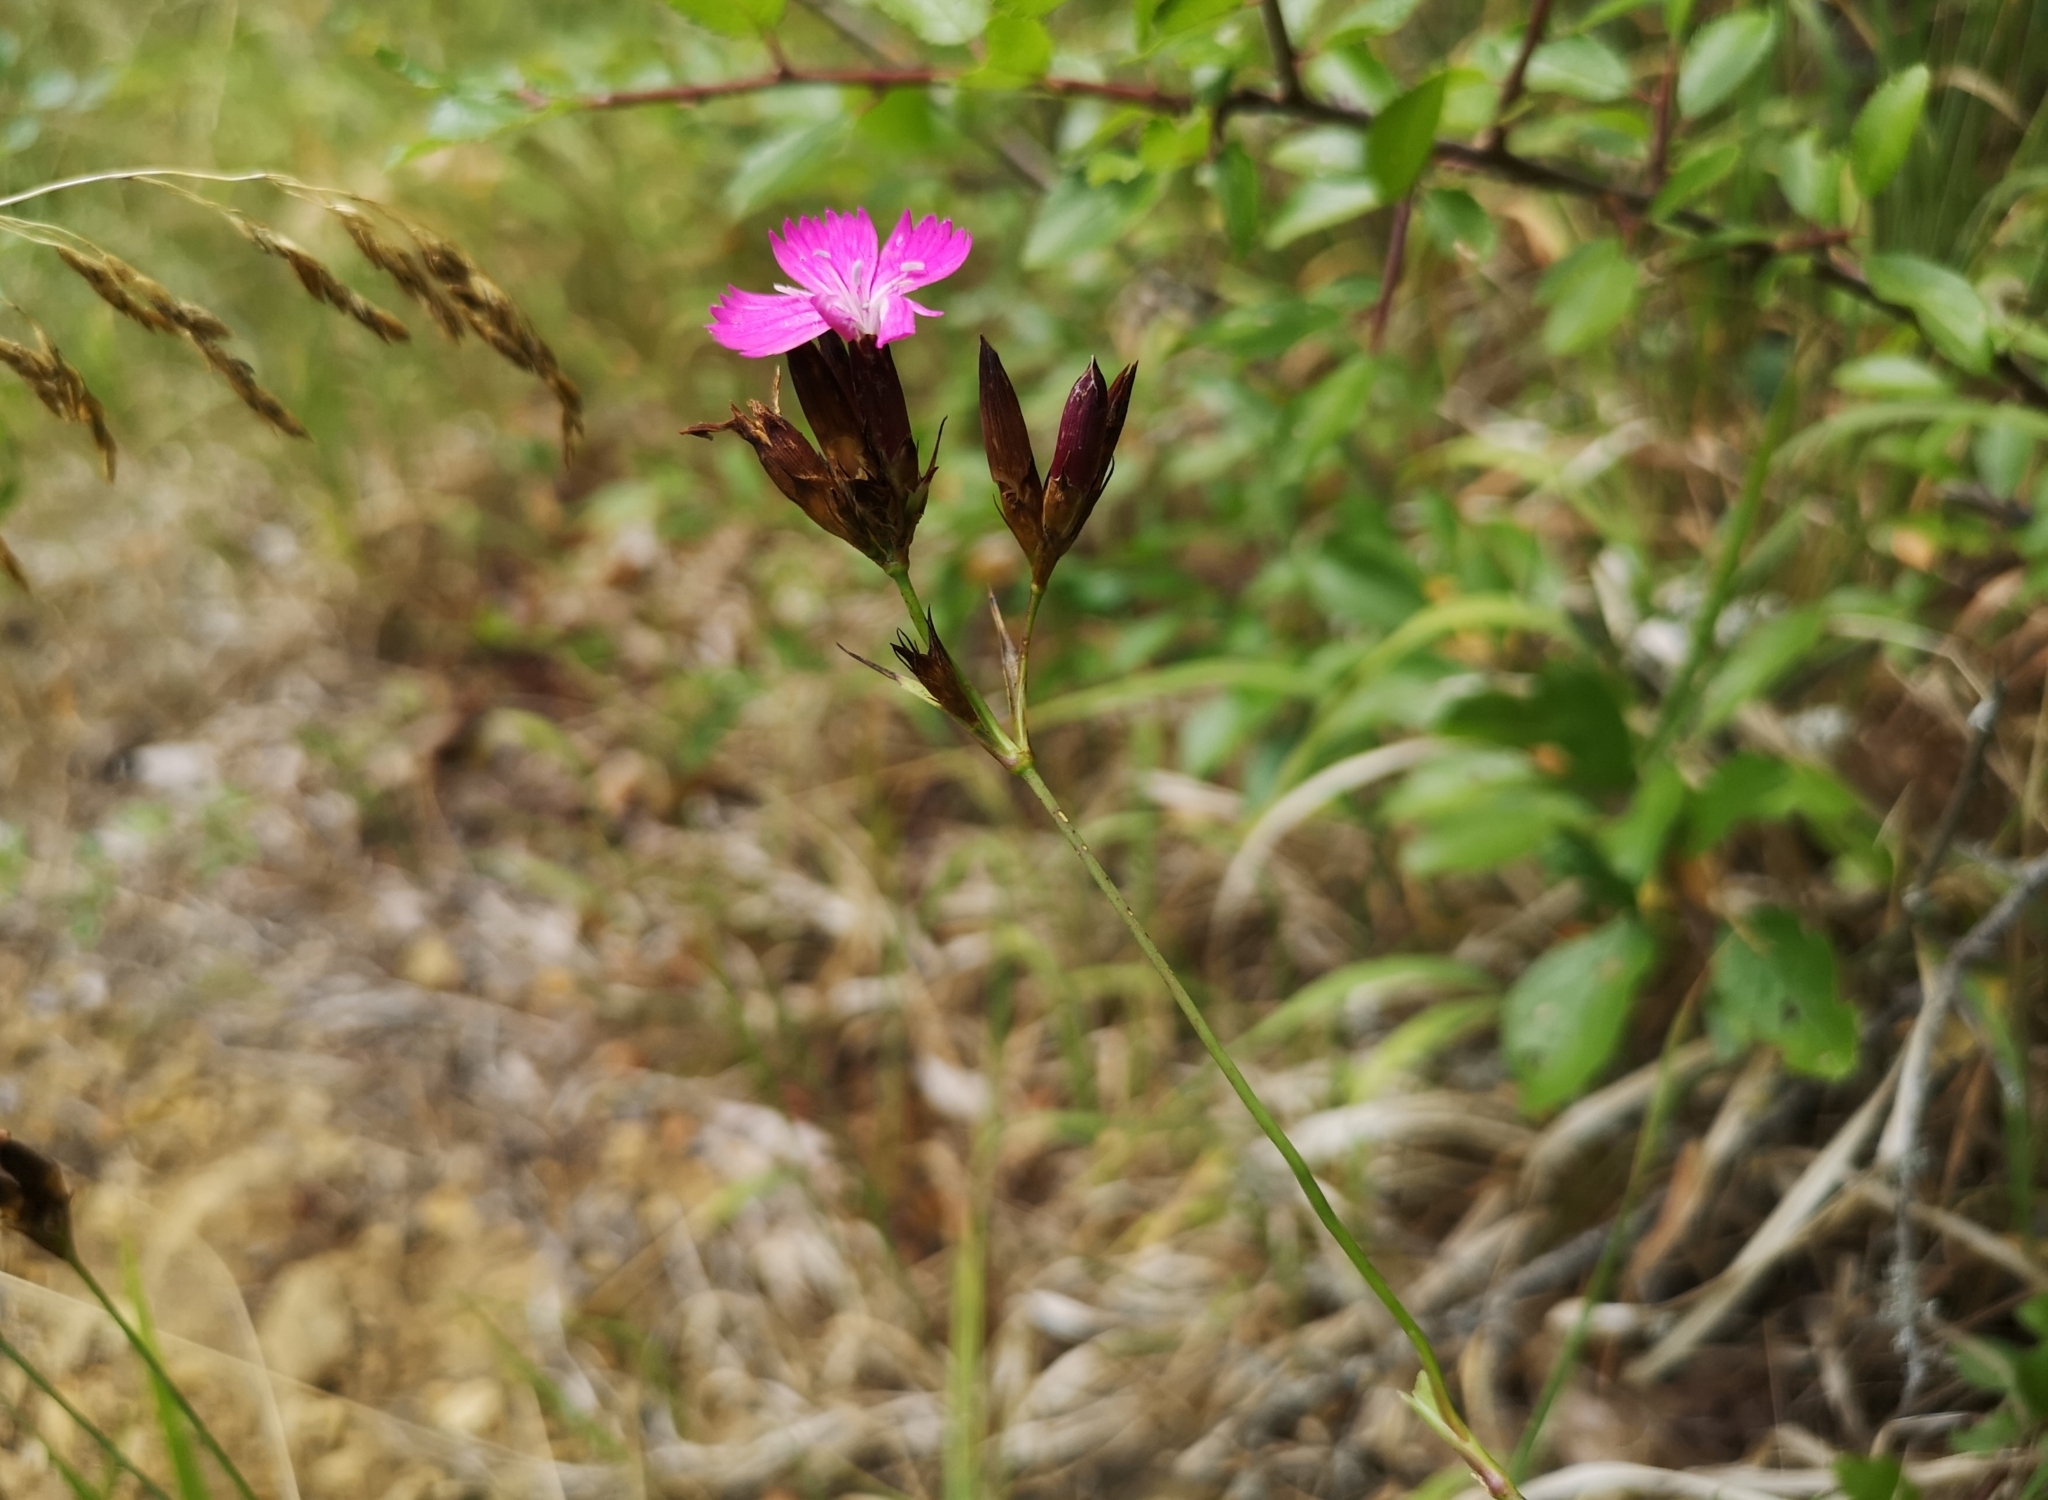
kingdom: Plantae
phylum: Tracheophyta
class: Magnoliopsida
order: Caryophyllales
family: Caryophyllaceae
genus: Dianthus
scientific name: Dianthus carthusianorum
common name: Carthusian pink
